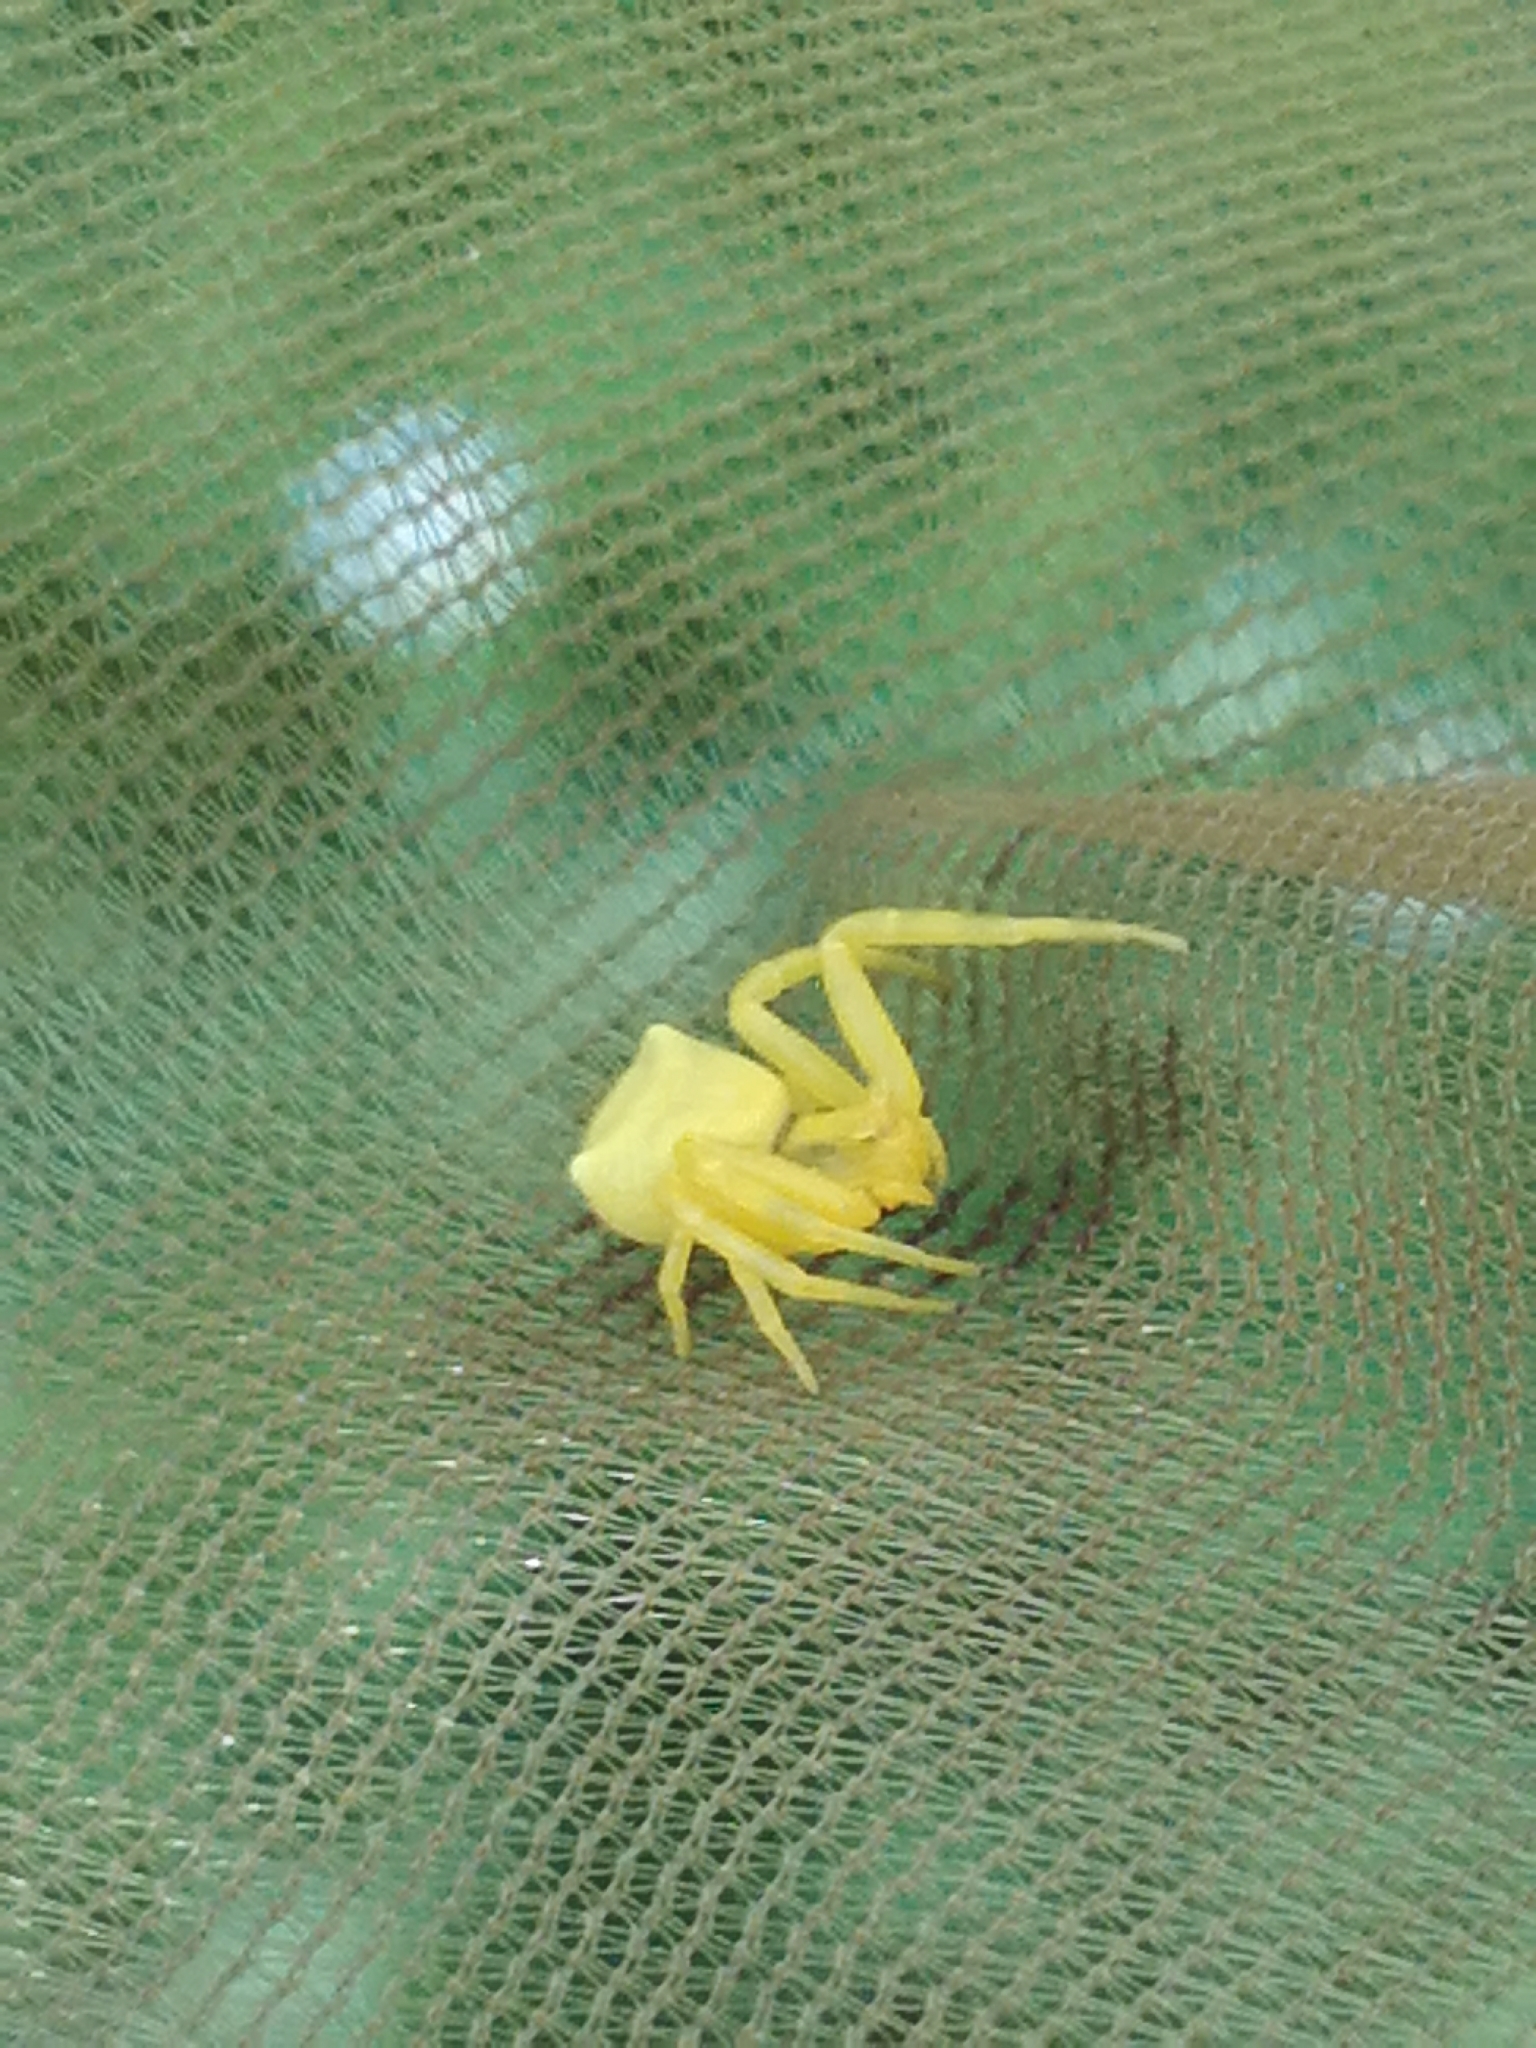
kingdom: Animalia
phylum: Arthropoda
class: Arachnida
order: Araneae
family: Thomisidae
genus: Thomisus
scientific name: Thomisus onustus
